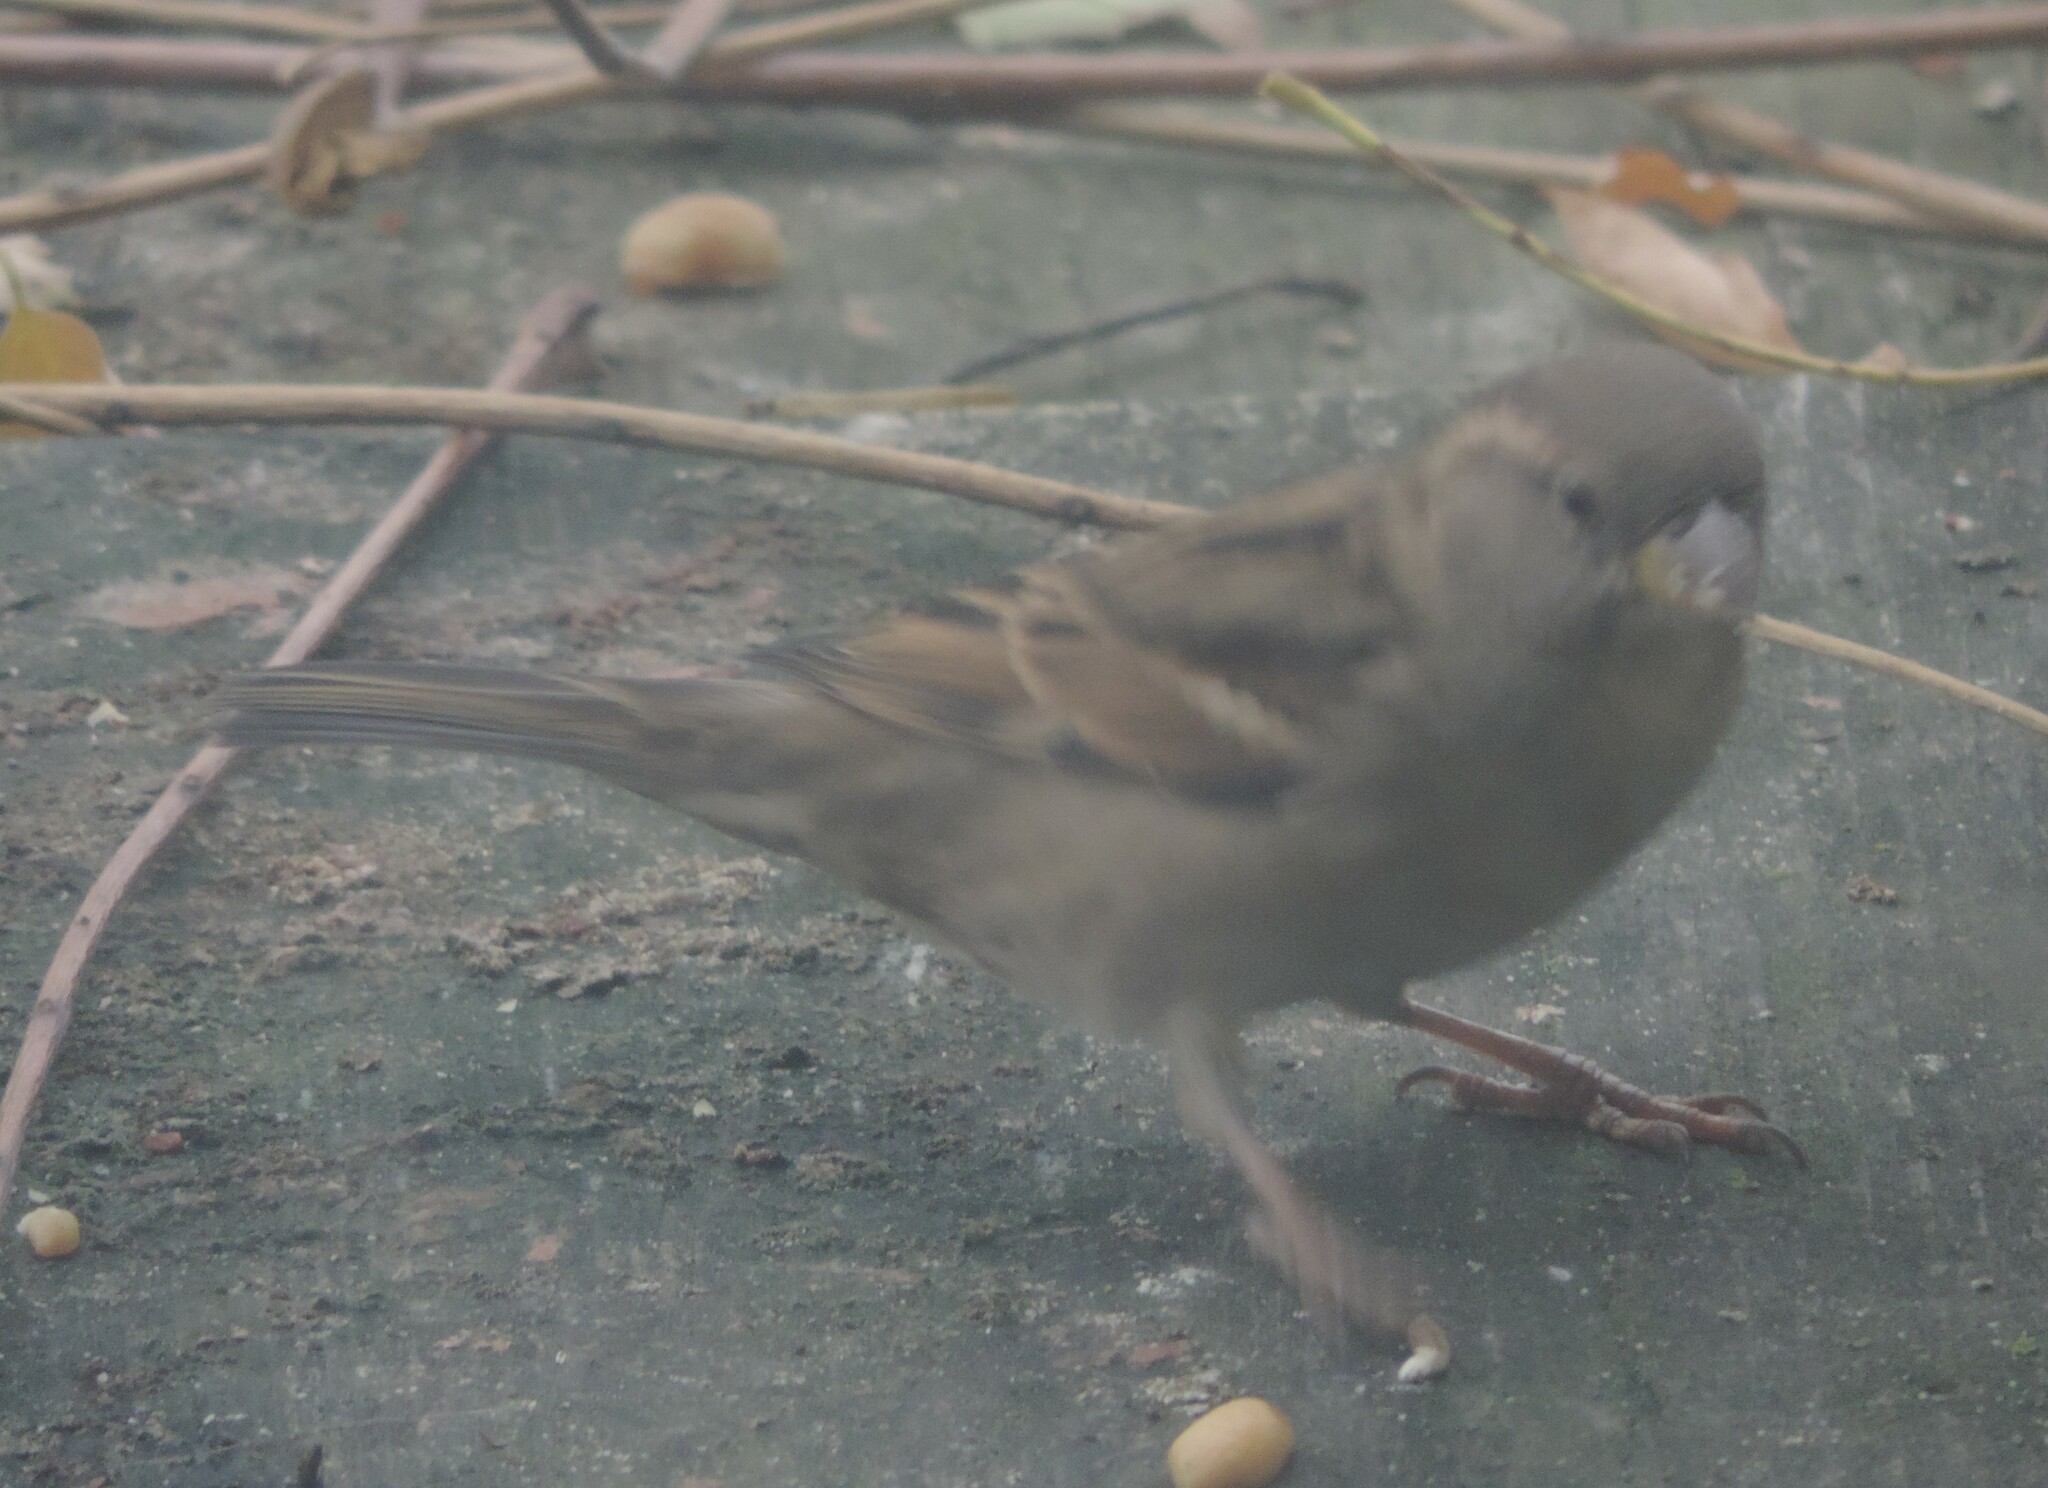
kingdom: Animalia
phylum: Chordata
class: Aves
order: Passeriformes
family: Passeridae
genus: Passer
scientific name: Passer domesticus
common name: House sparrow
